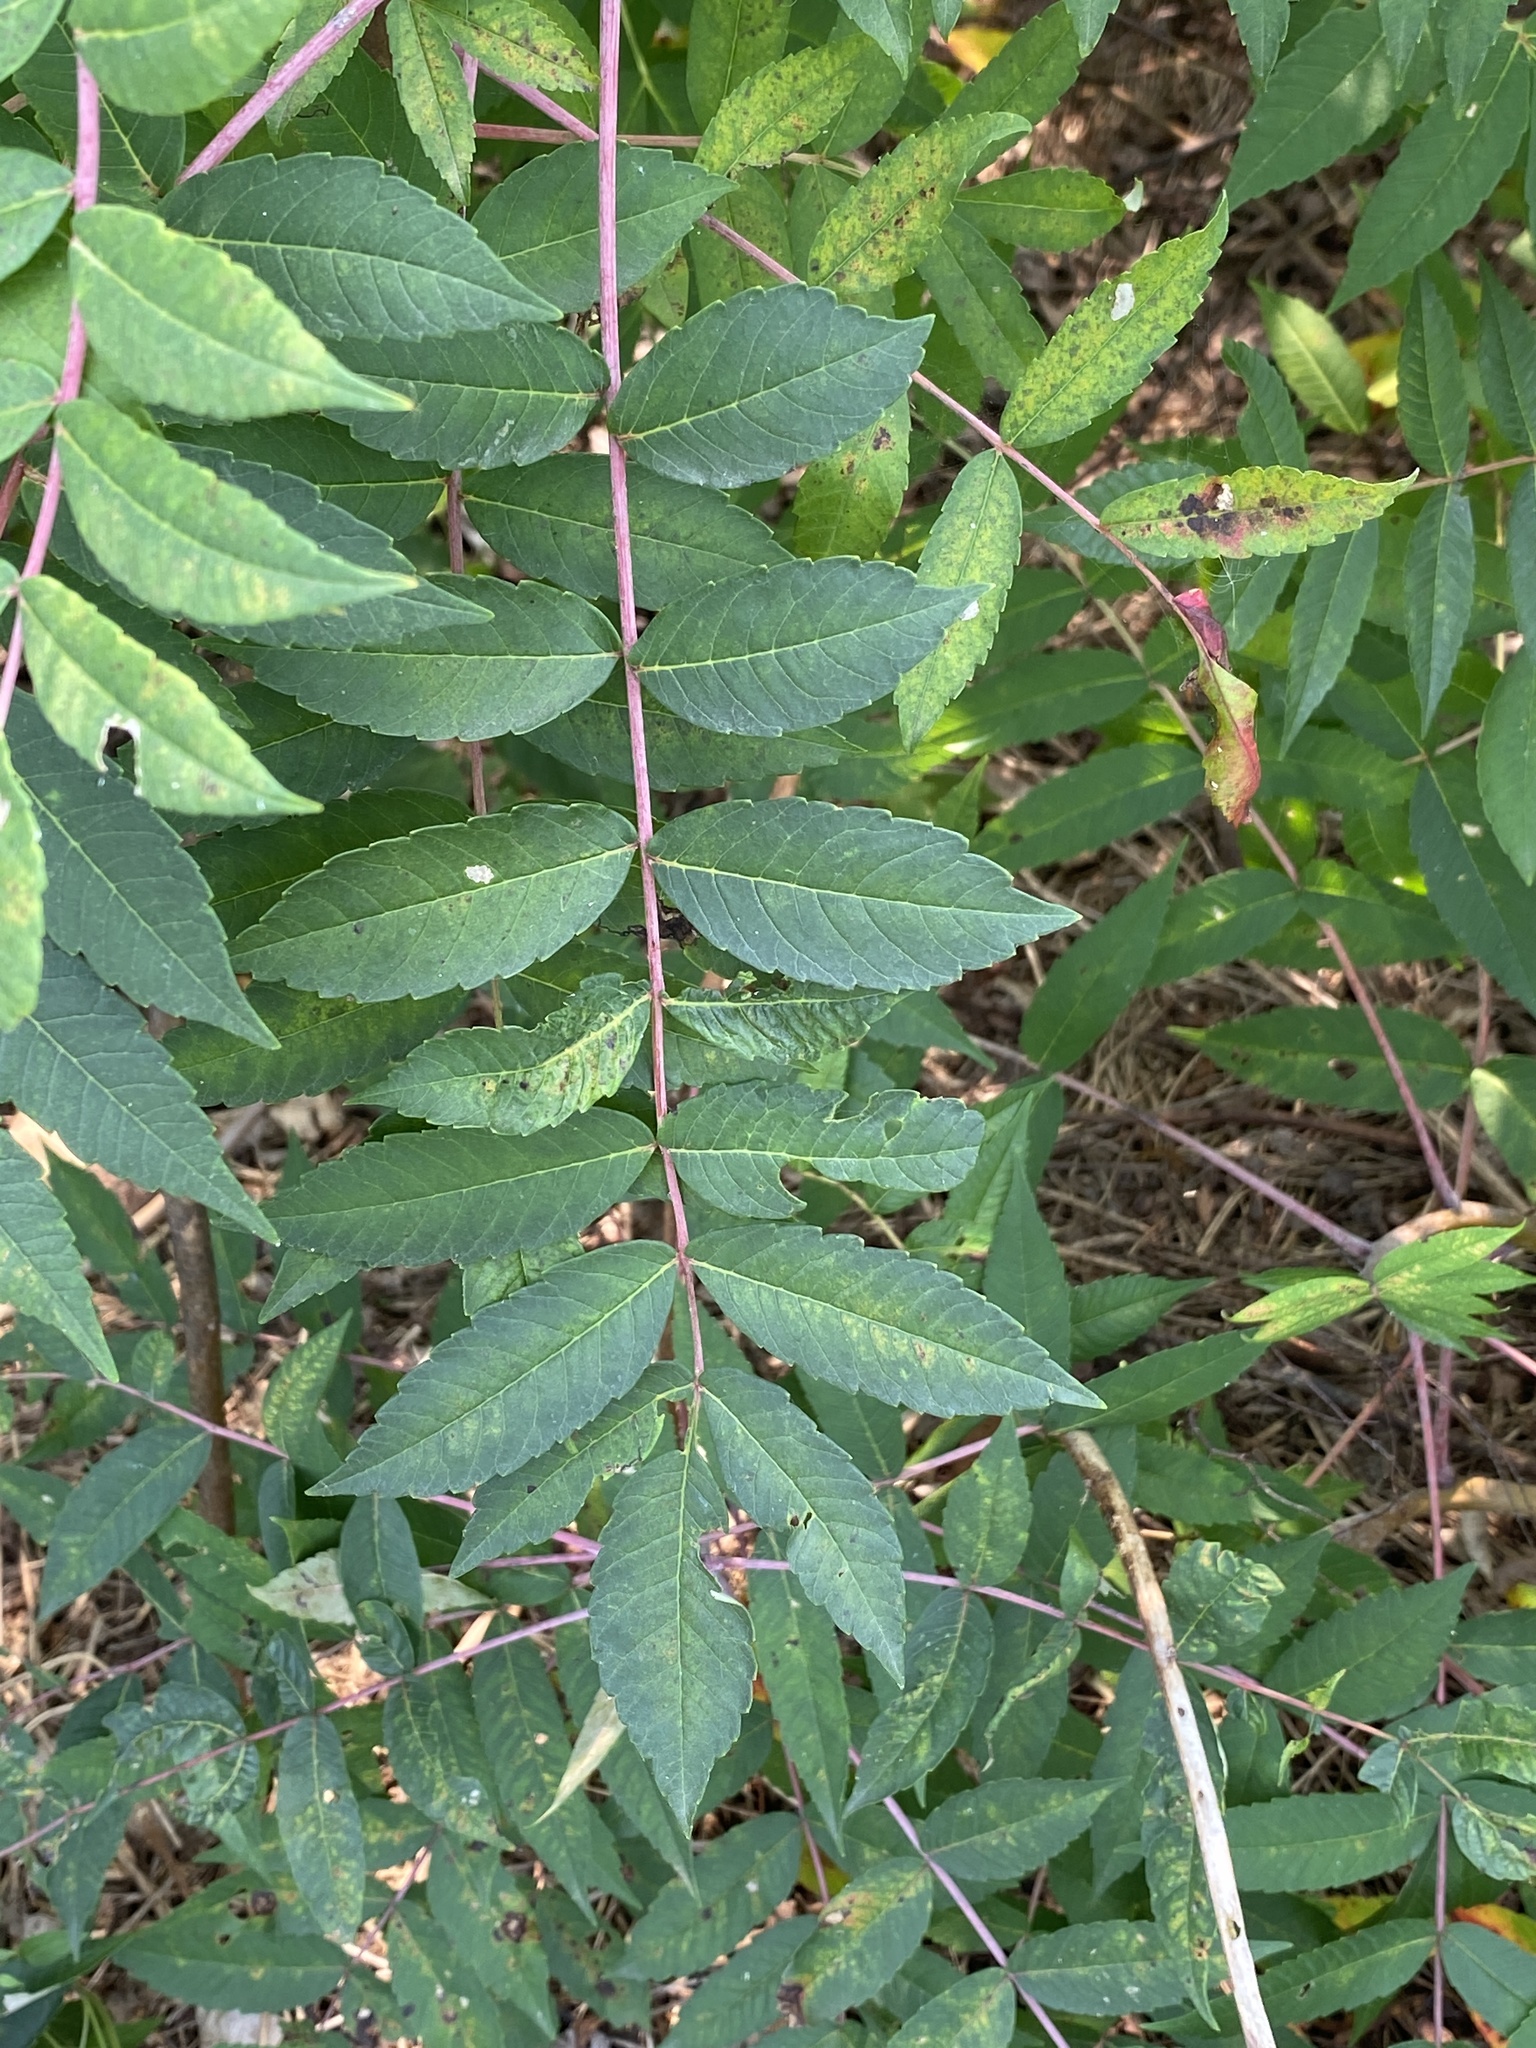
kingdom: Plantae
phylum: Tracheophyta
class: Magnoliopsida
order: Sapindales
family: Anacardiaceae
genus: Rhus
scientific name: Rhus glabra
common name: Scarlet sumac
